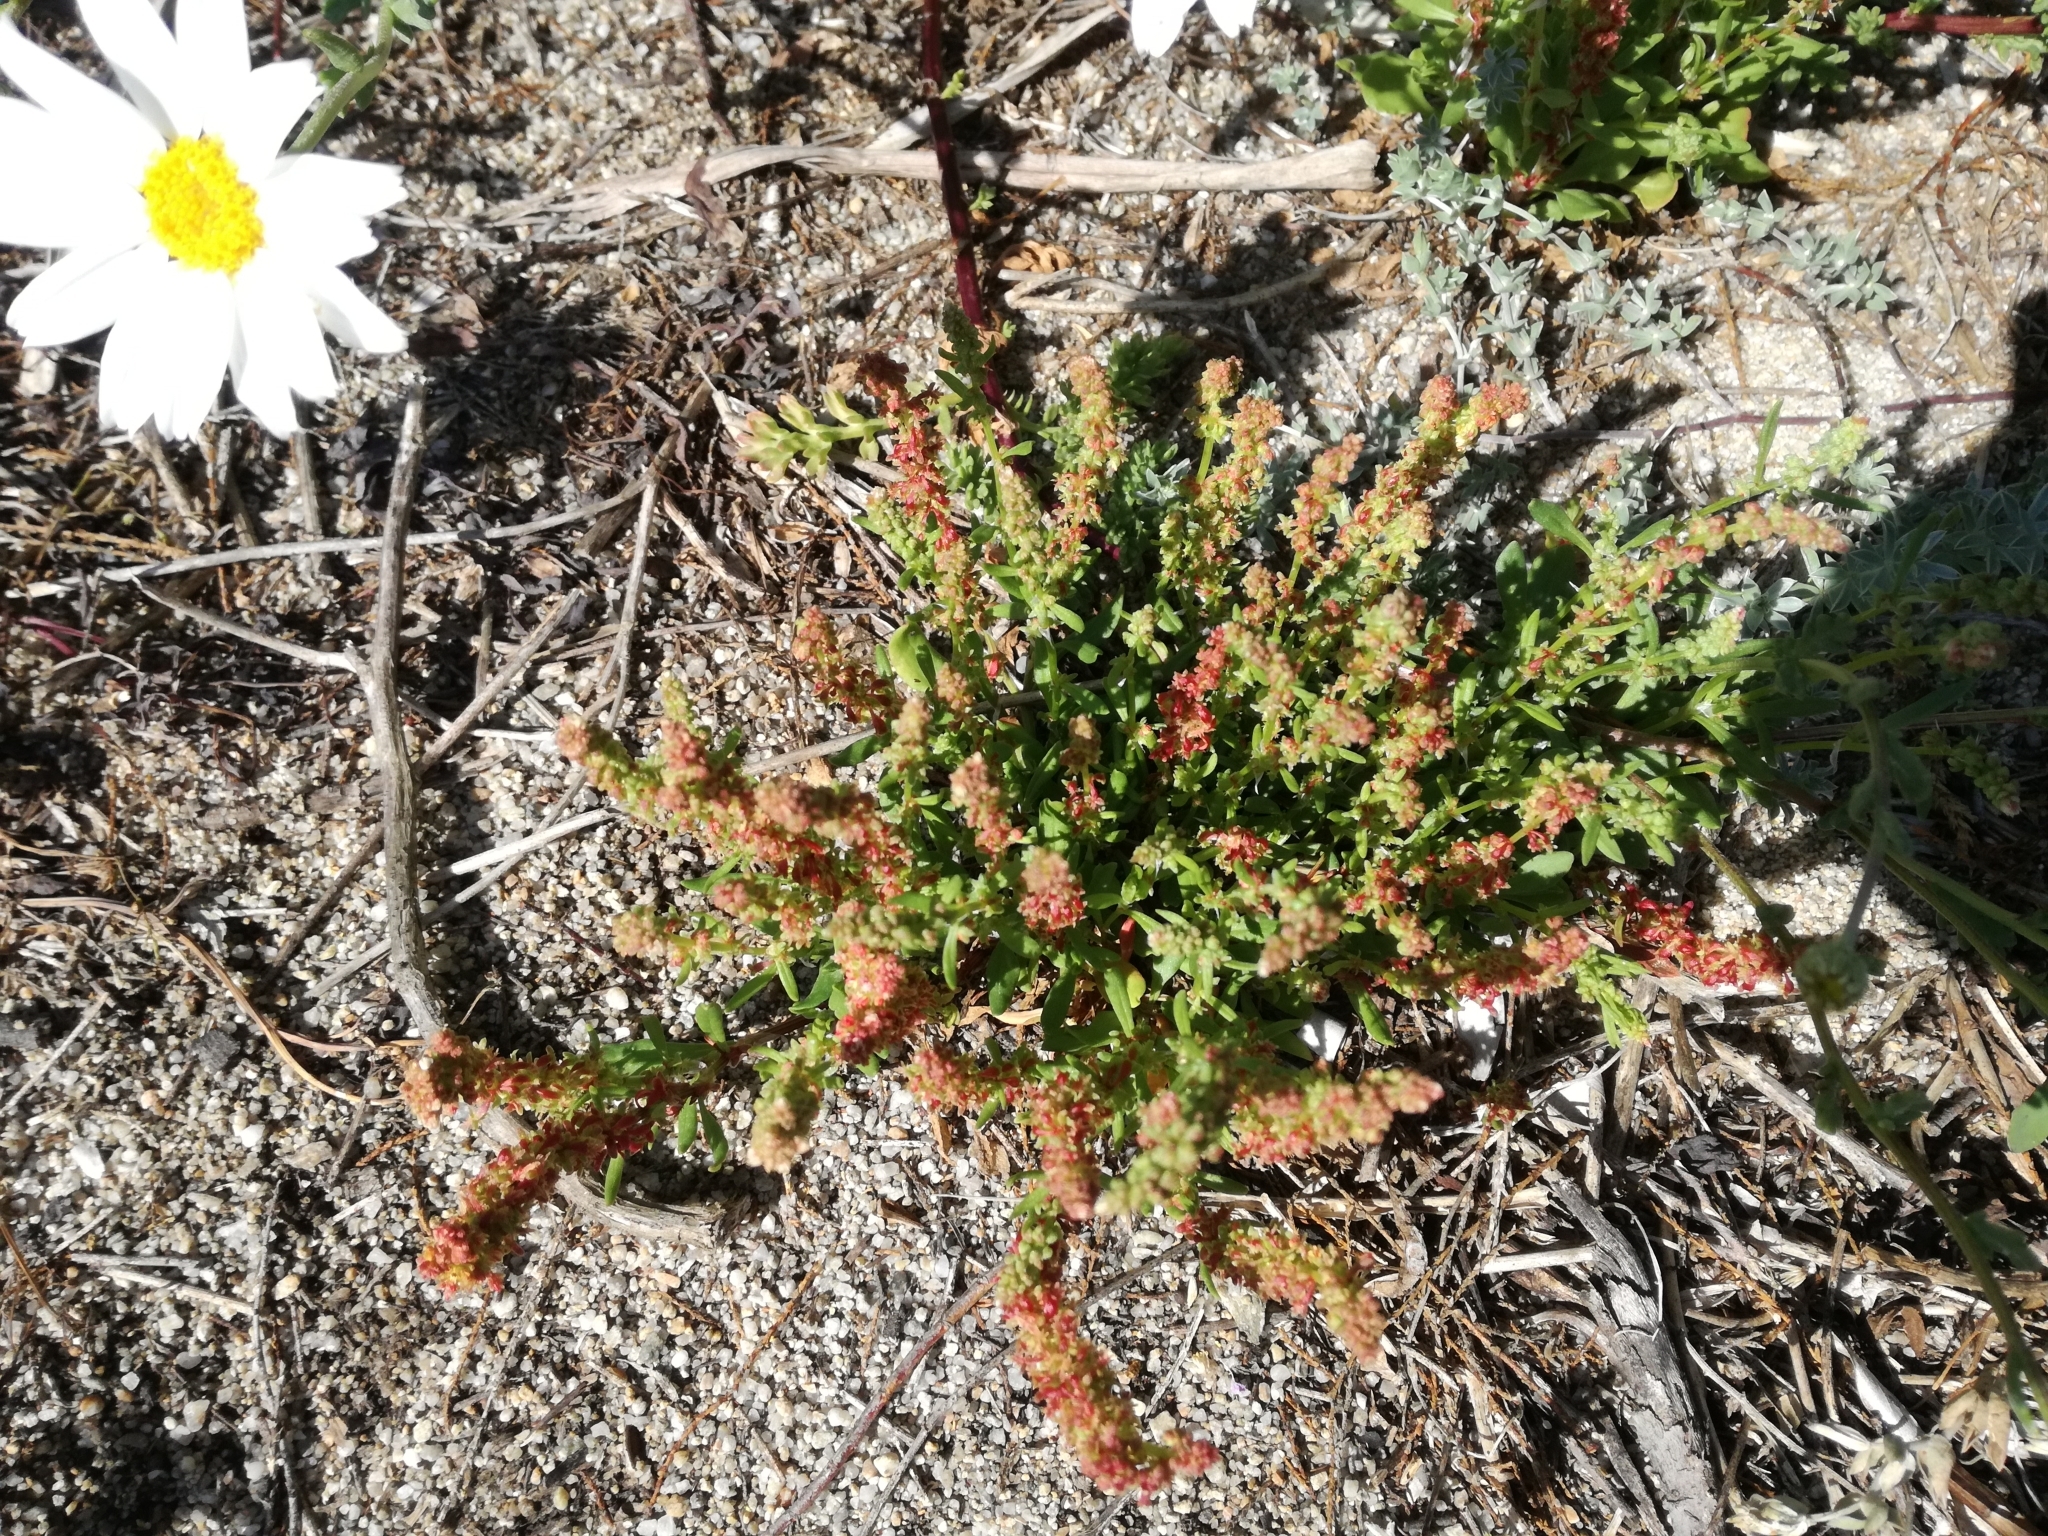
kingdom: Plantae
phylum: Tracheophyta
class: Magnoliopsida
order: Caryophyllales
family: Polygonaceae
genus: Rumex
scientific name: Rumex bucephalophorus
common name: Red dock
